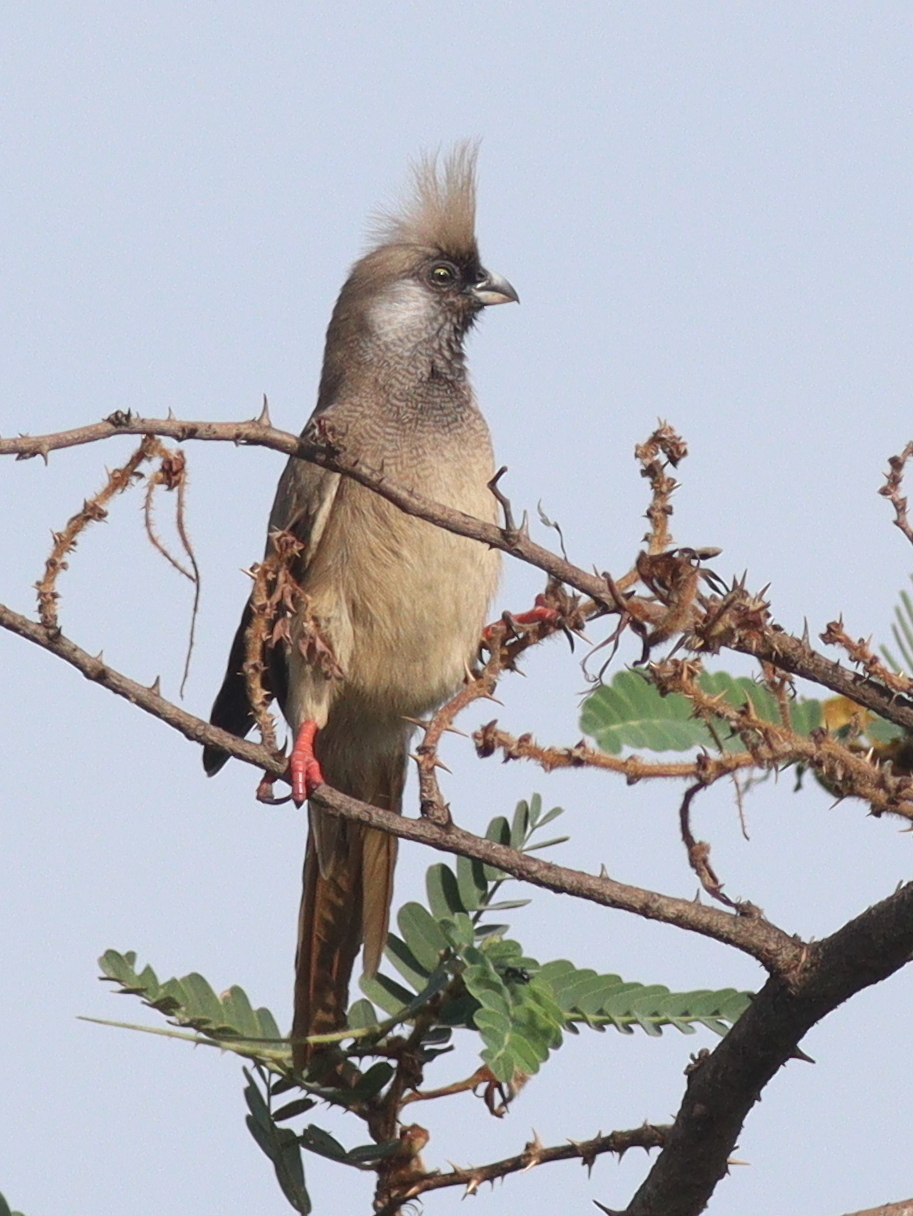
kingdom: Animalia
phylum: Chordata
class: Aves
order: Coliiformes
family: Coliidae
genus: Colius
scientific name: Colius striatus
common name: Speckled mousebird
